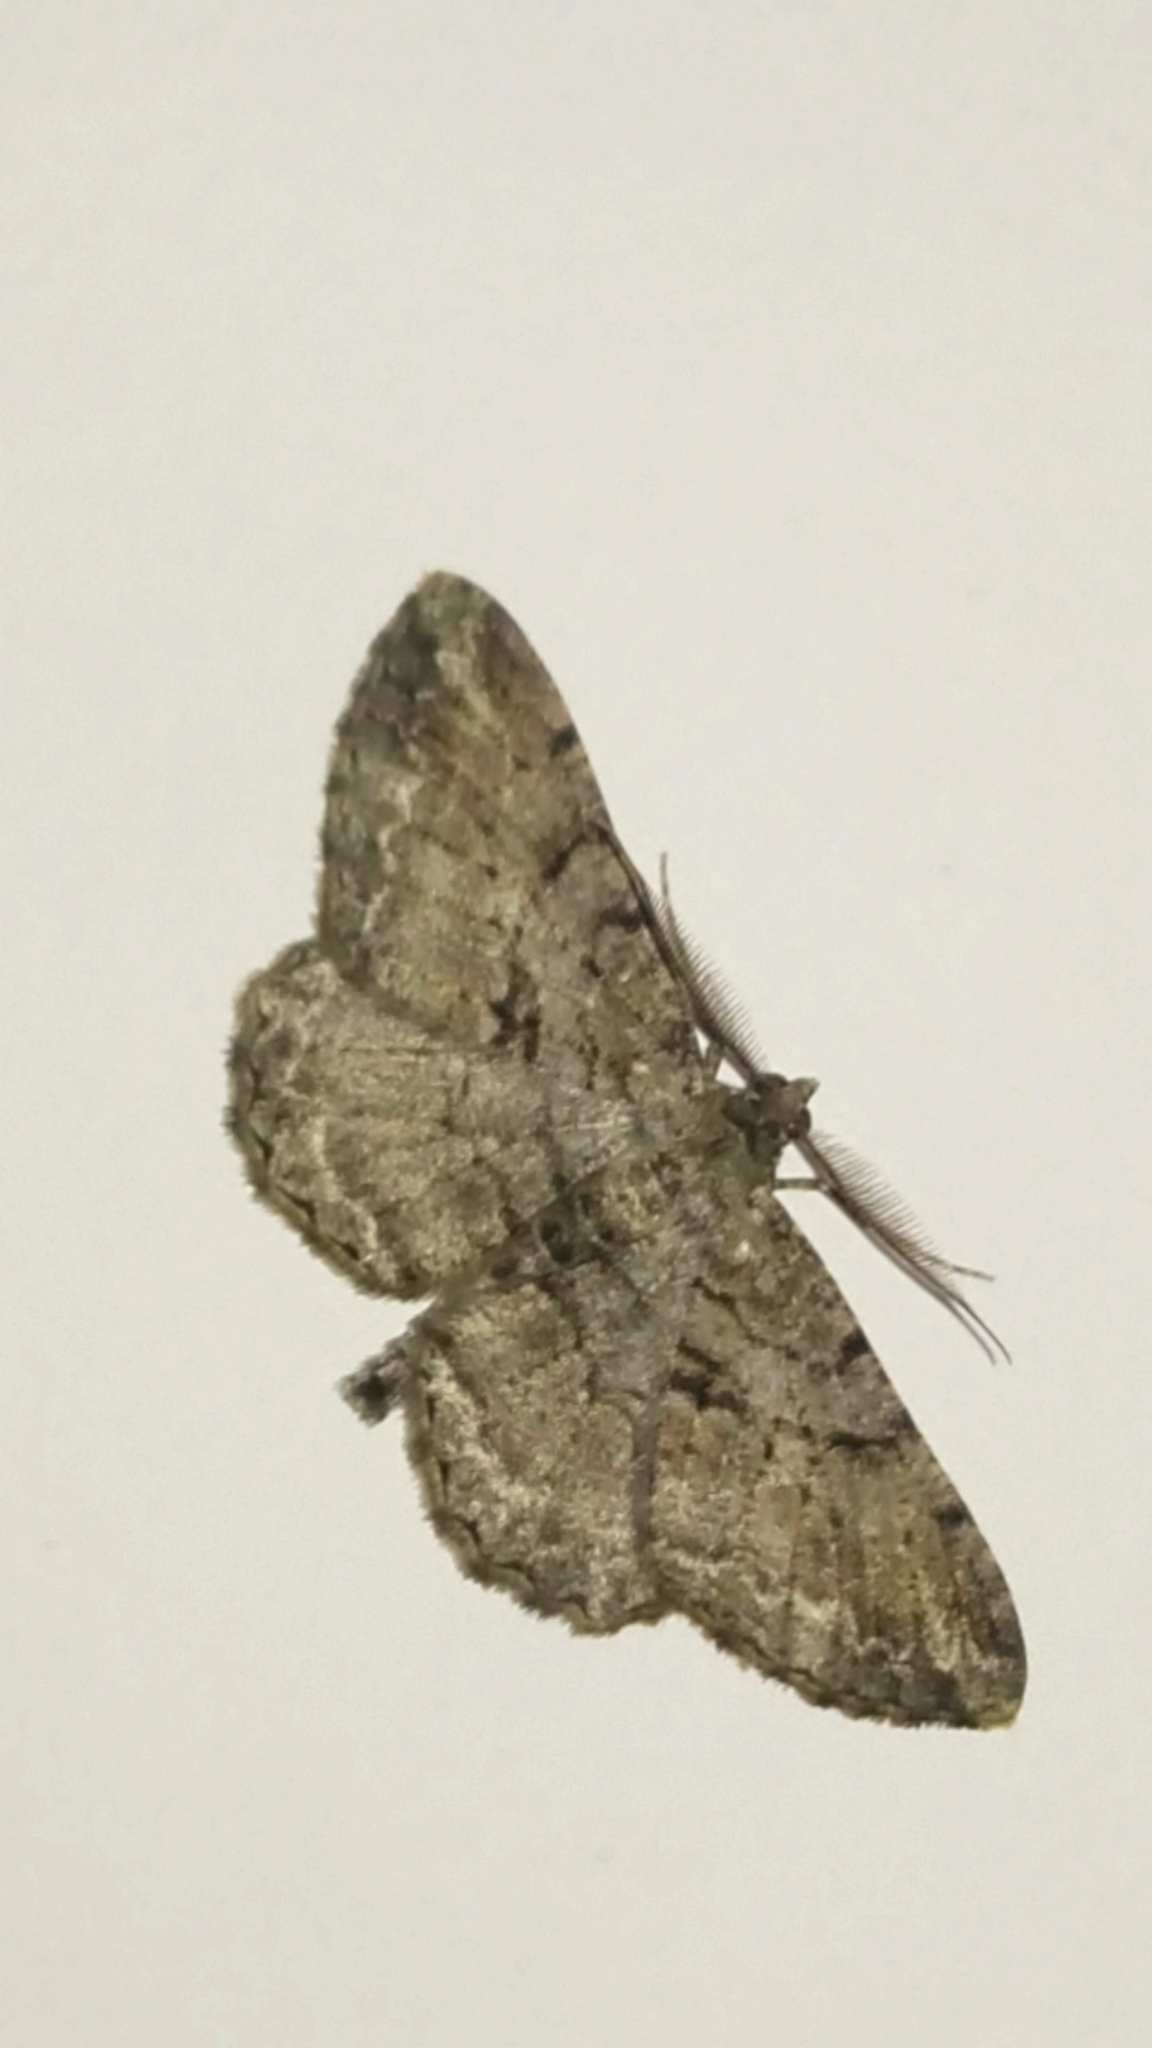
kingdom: Animalia
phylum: Arthropoda
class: Insecta
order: Lepidoptera
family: Geometridae
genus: Peribatodes
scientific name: Peribatodes rhomboidaria
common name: Willow beauty
